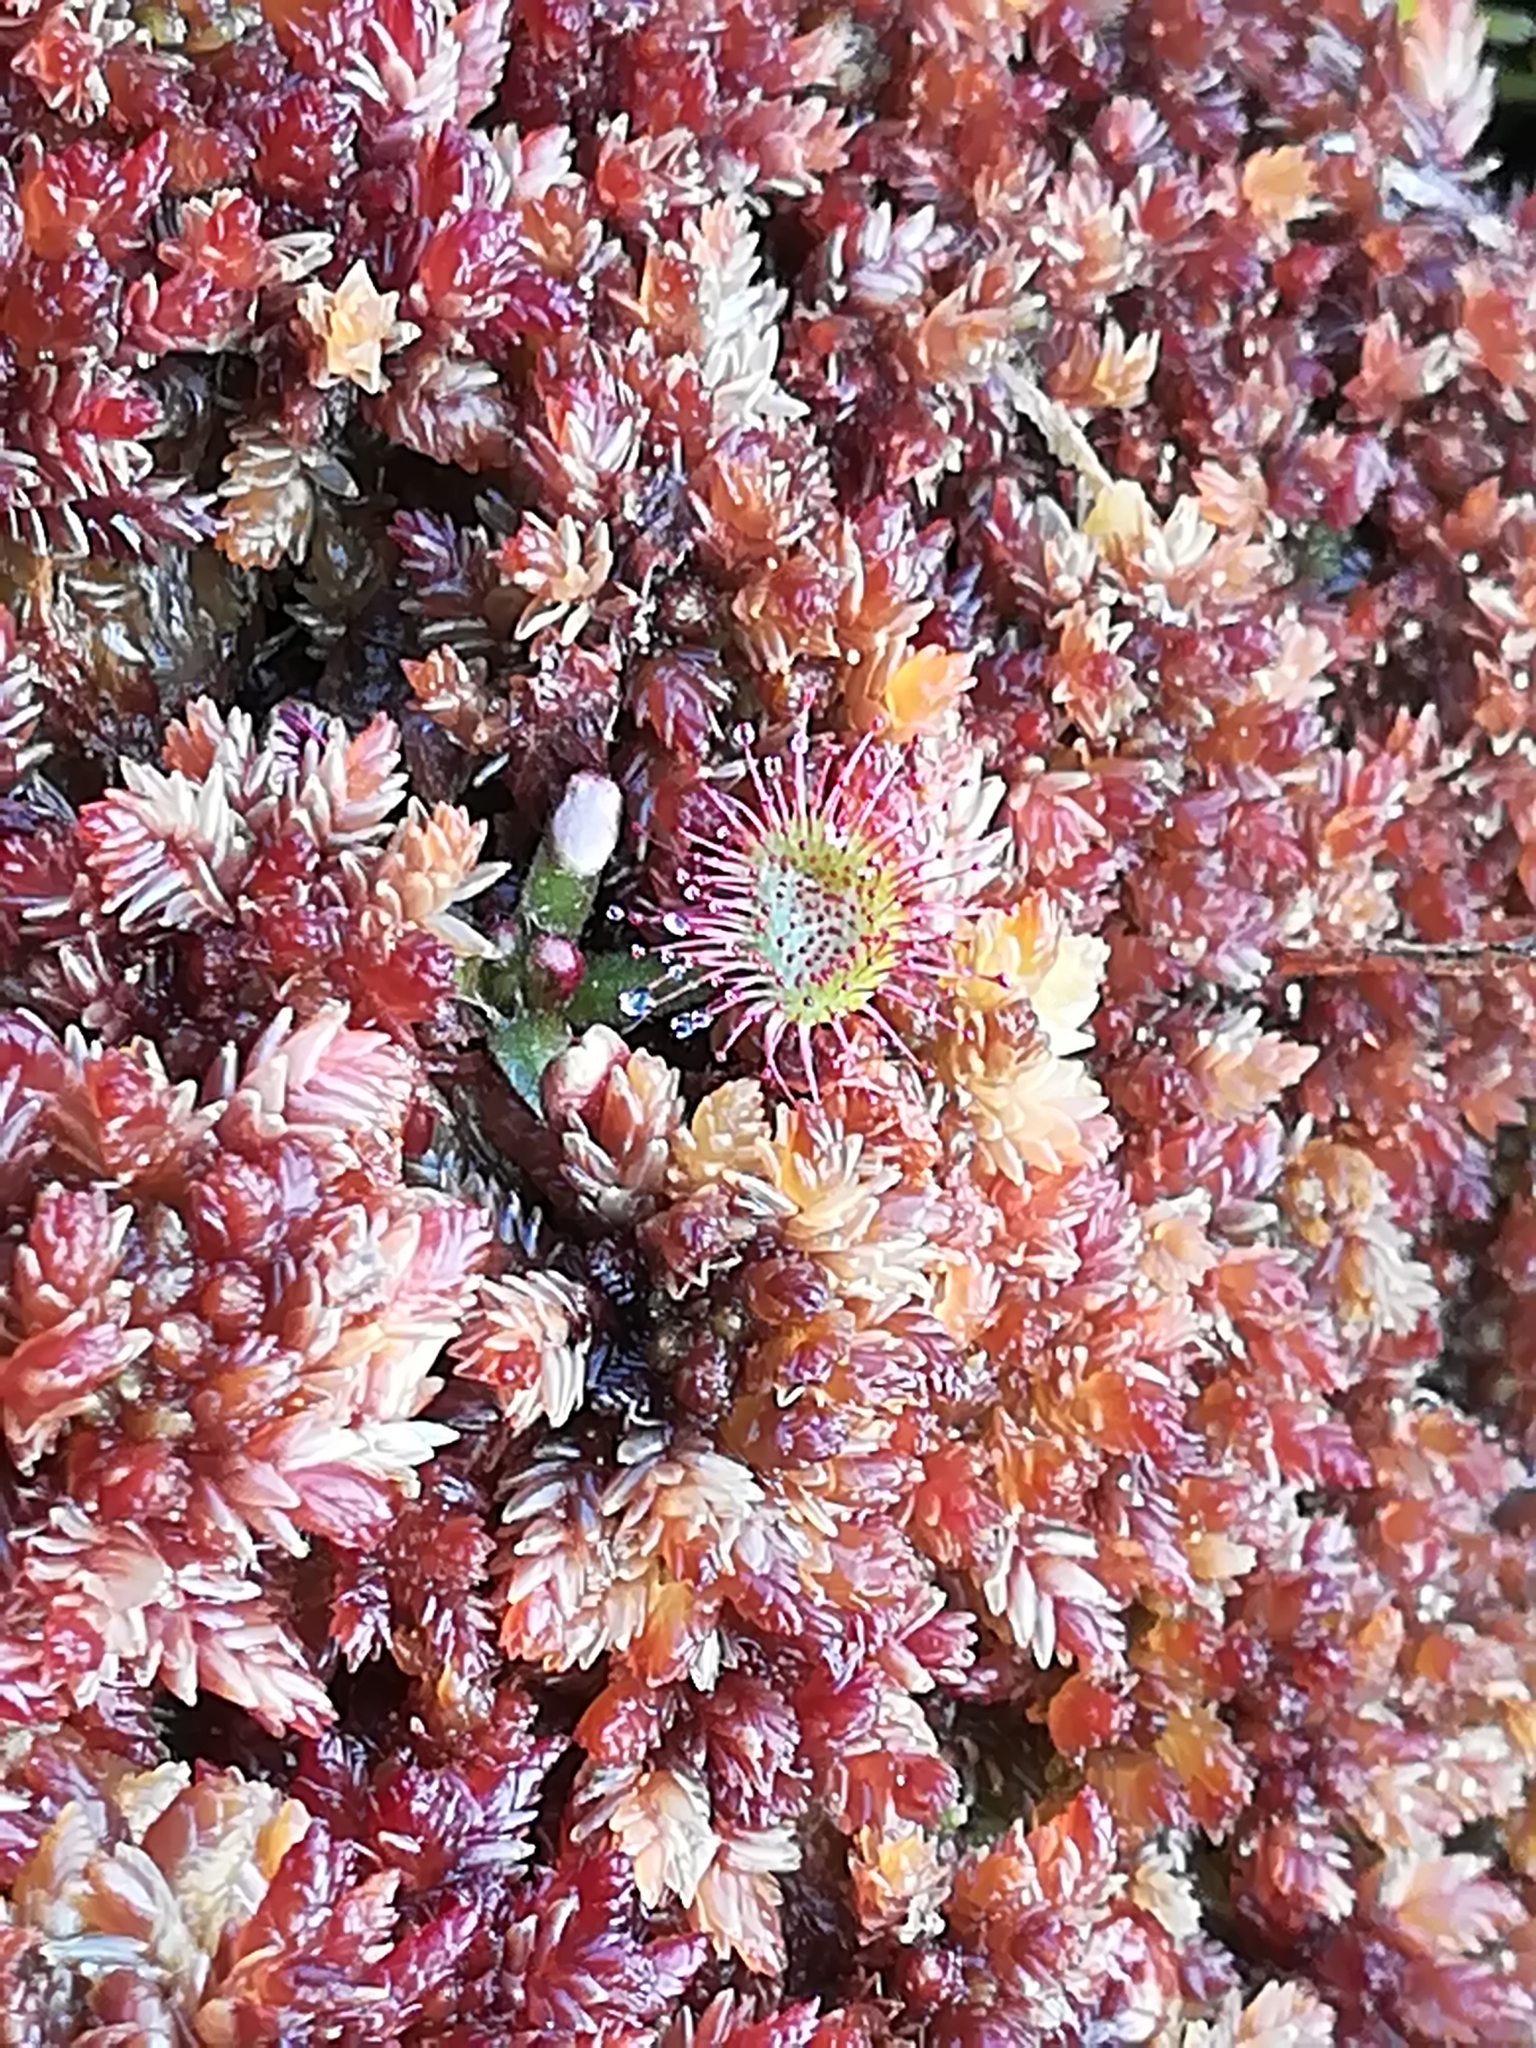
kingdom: Plantae
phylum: Tracheophyta
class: Magnoliopsida
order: Caryophyllales
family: Droseraceae
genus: Drosera
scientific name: Drosera rotundifolia
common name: Round-leaved sundew
